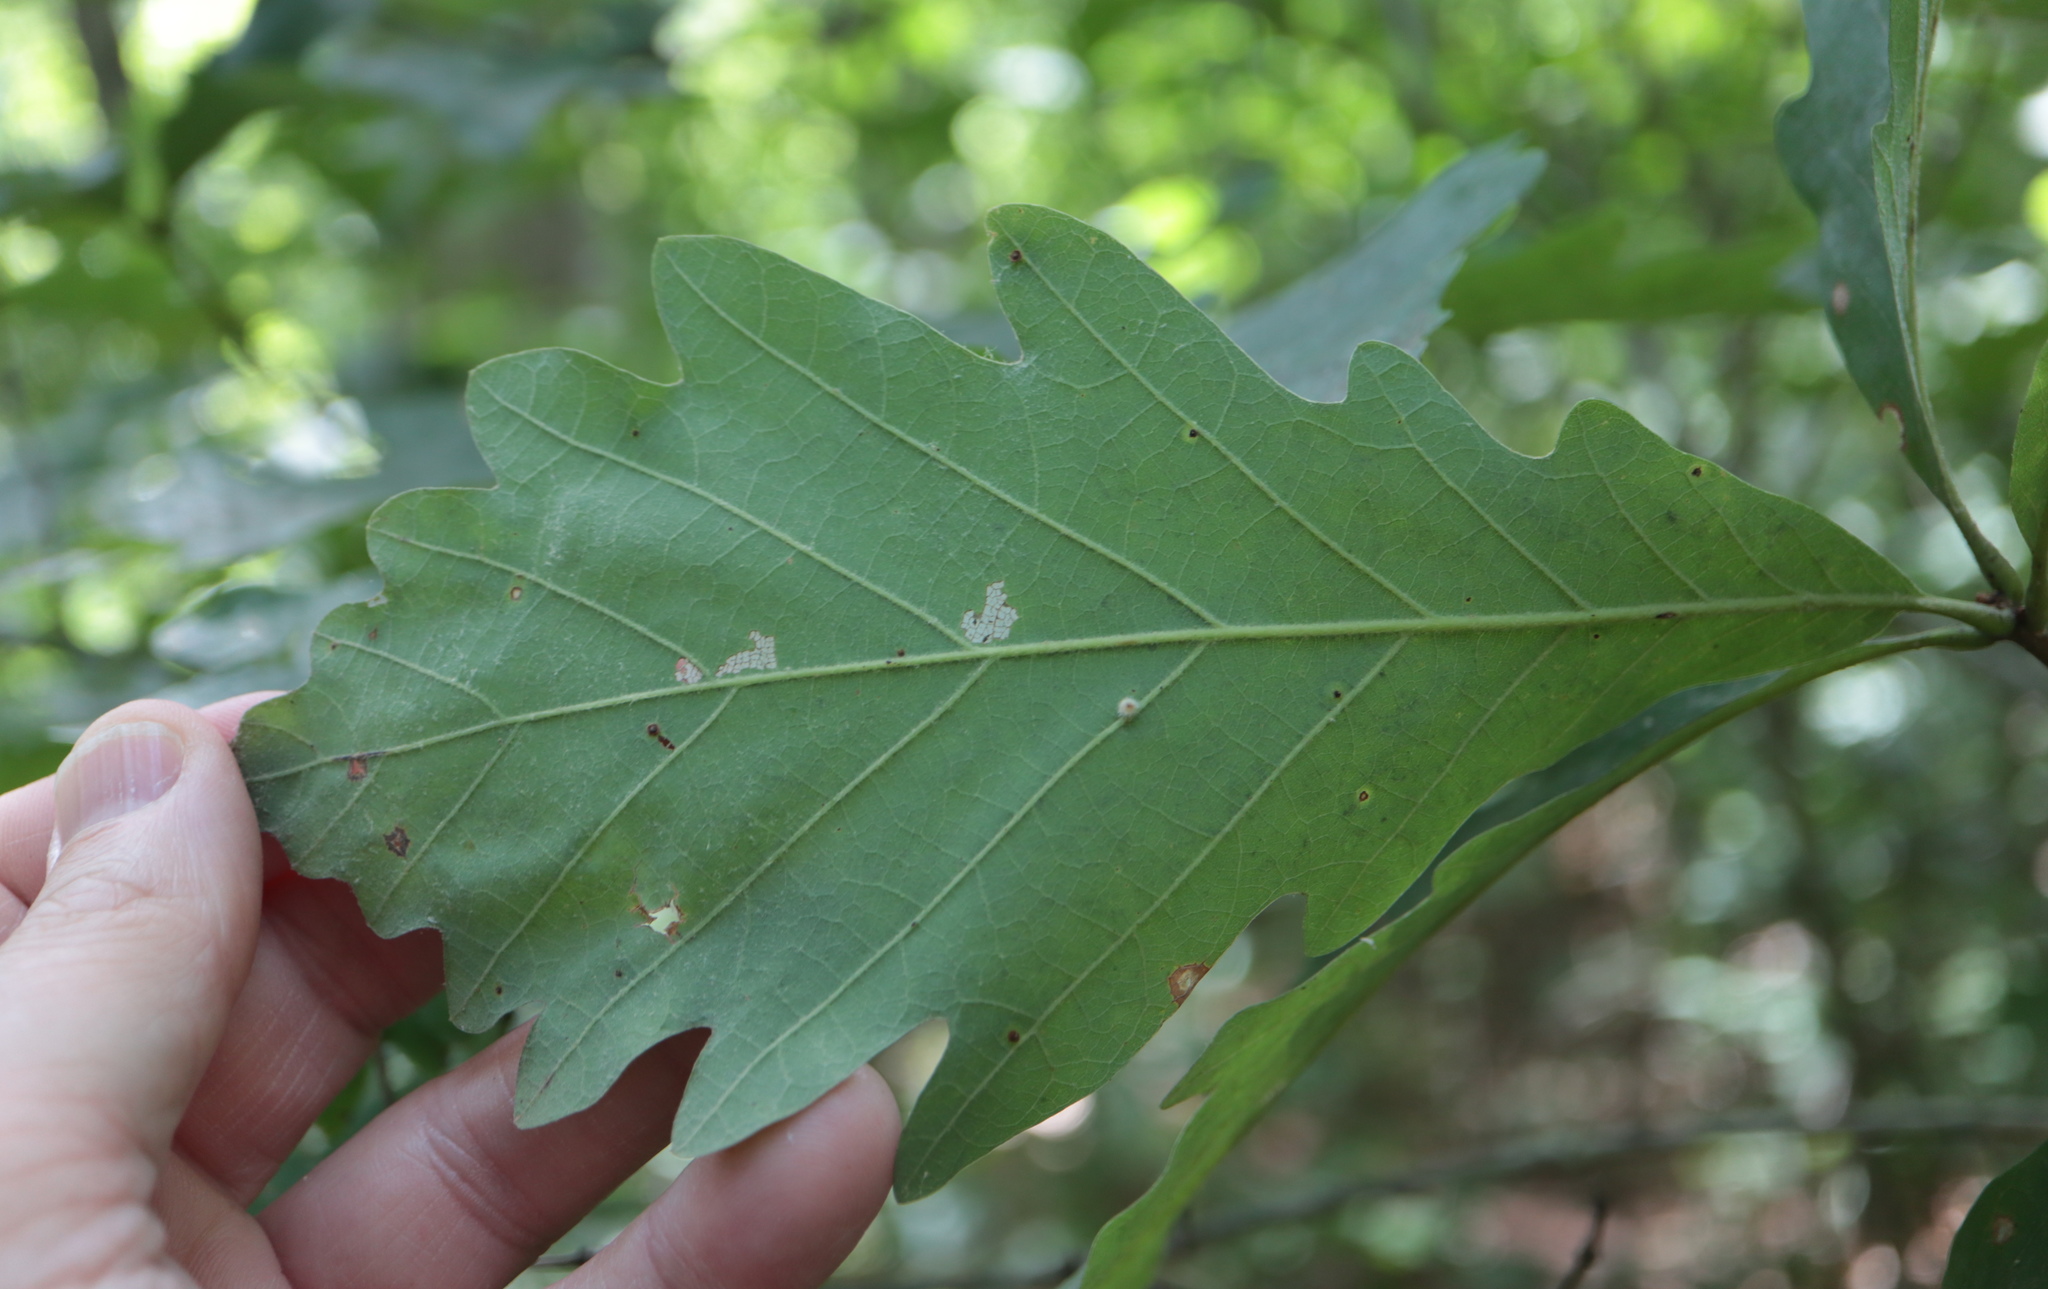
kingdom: Animalia
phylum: Arthropoda
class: Insecta
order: Hymenoptera
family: Cynipidae
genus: Philonix
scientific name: Philonix fulvicollis
